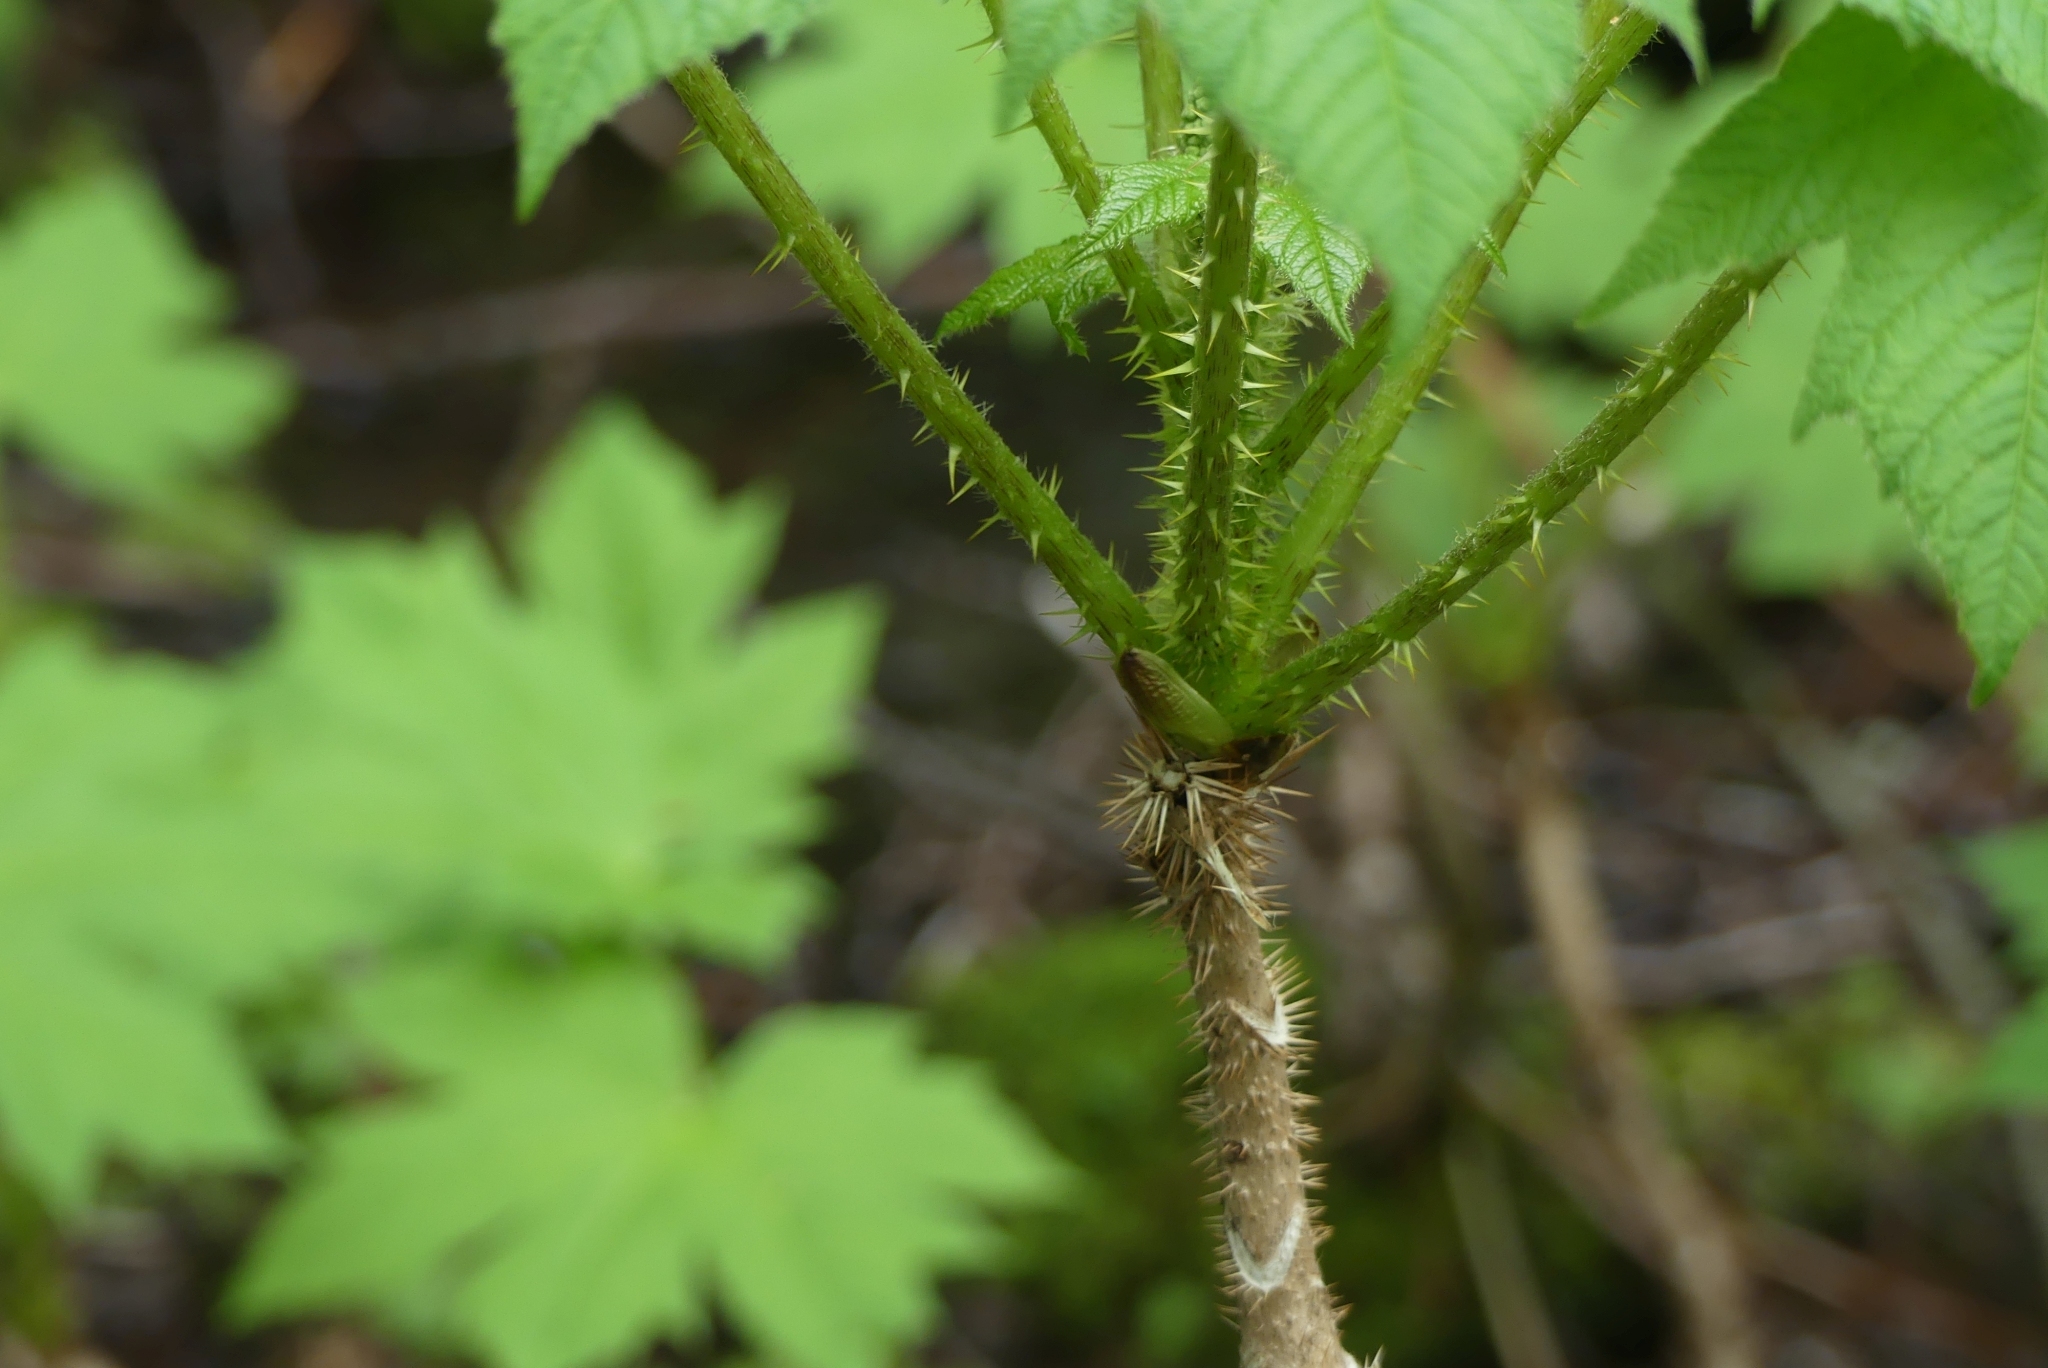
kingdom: Plantae
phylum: Tracheophyta
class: Magnoliopsida
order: Apiales
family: Araliaceae
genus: Oplopanax
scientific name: Oplopanax horridus
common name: Devil's walking-stick
